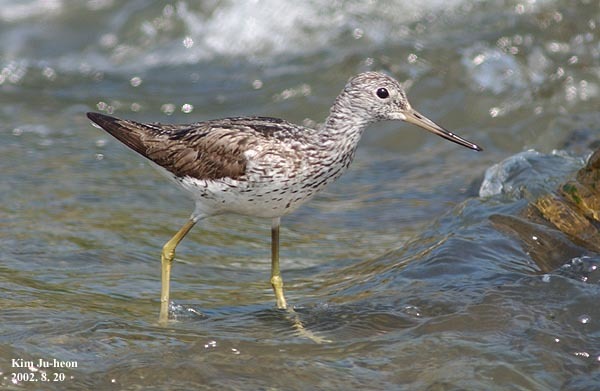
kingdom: Animalia
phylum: Chordata
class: Aves
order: Charadriiformes
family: Scolopacidae
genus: Tringa
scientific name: Tringa nebularia
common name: Common greenshank
